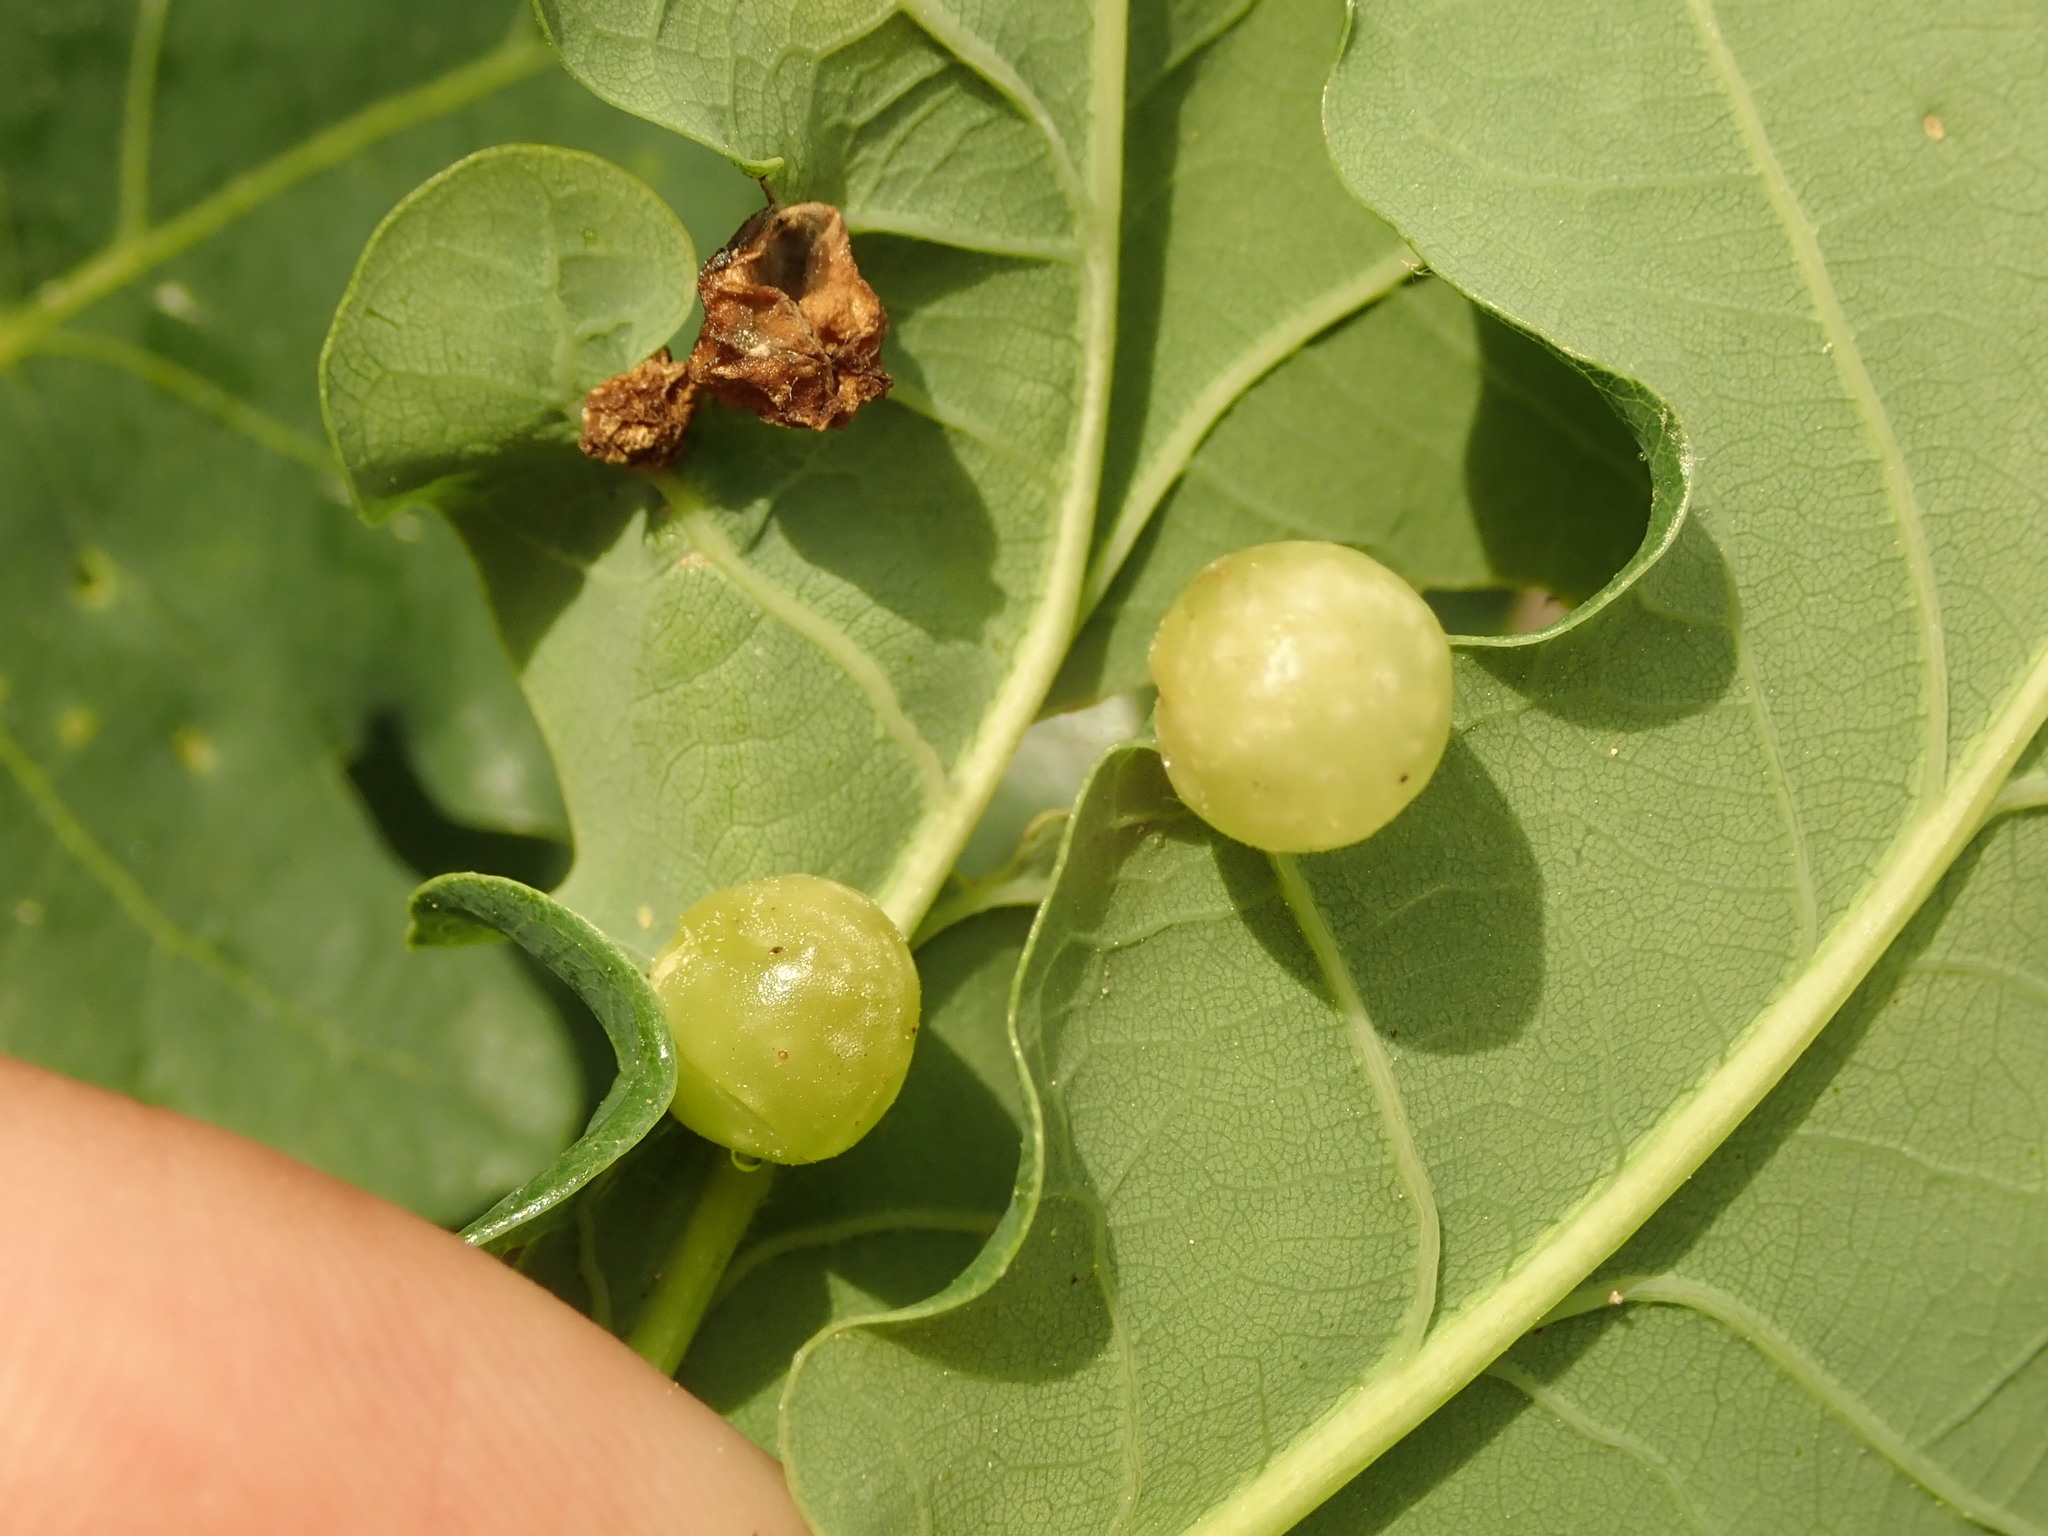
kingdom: Animalia
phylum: Arthropoda
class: Insecta
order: Hymenoptera
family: Cynipidae
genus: Neuroterus
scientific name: Neuroterus quercusbaccarum
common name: Common spangle gall
